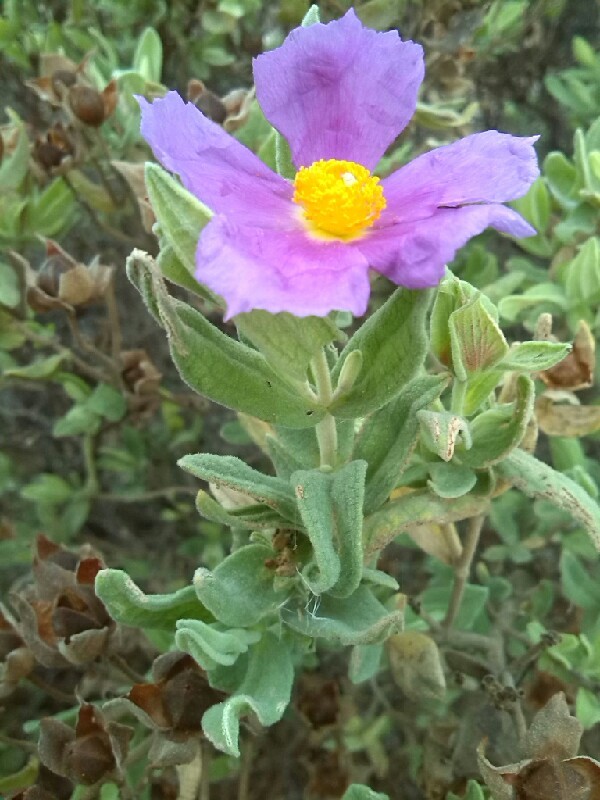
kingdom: Plantae
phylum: Tracheophyta
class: Magnoliopsida
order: Malvales
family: Cistaceae
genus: Cistus
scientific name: Cistus albidus
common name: White-leaf rock-rose
